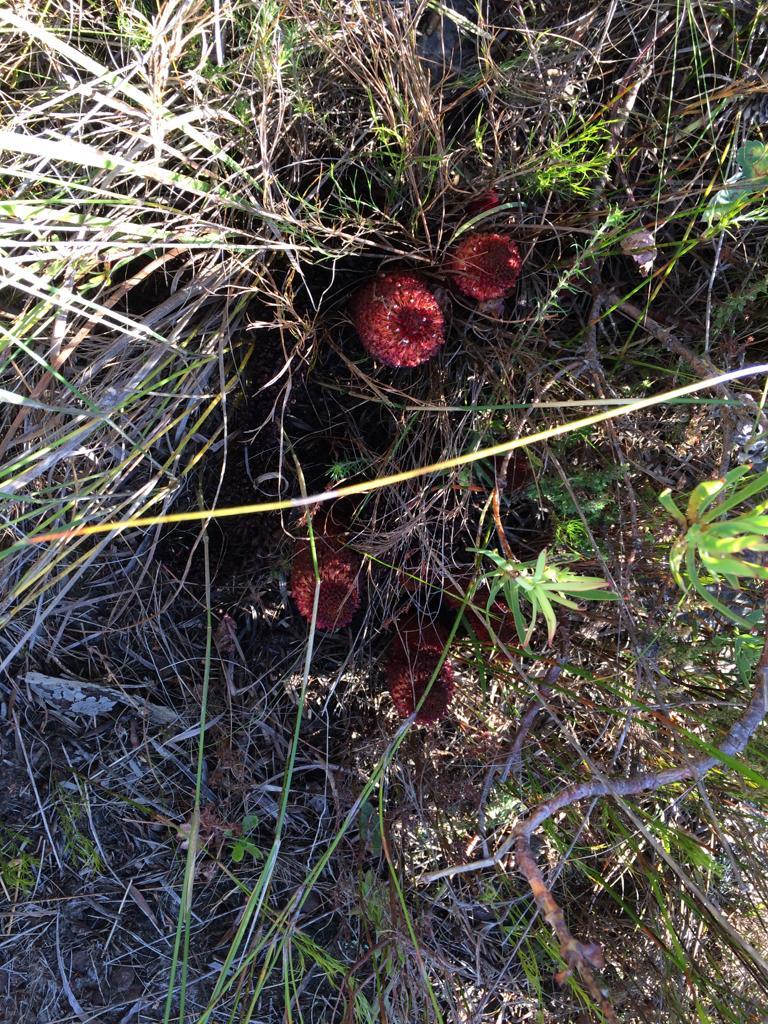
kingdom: Plantae
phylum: Tracheophyta
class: Magnoliopsida
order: Santalales
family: Mystropetalaceae
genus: Mystropetalon
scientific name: Mystropetalon thomii
